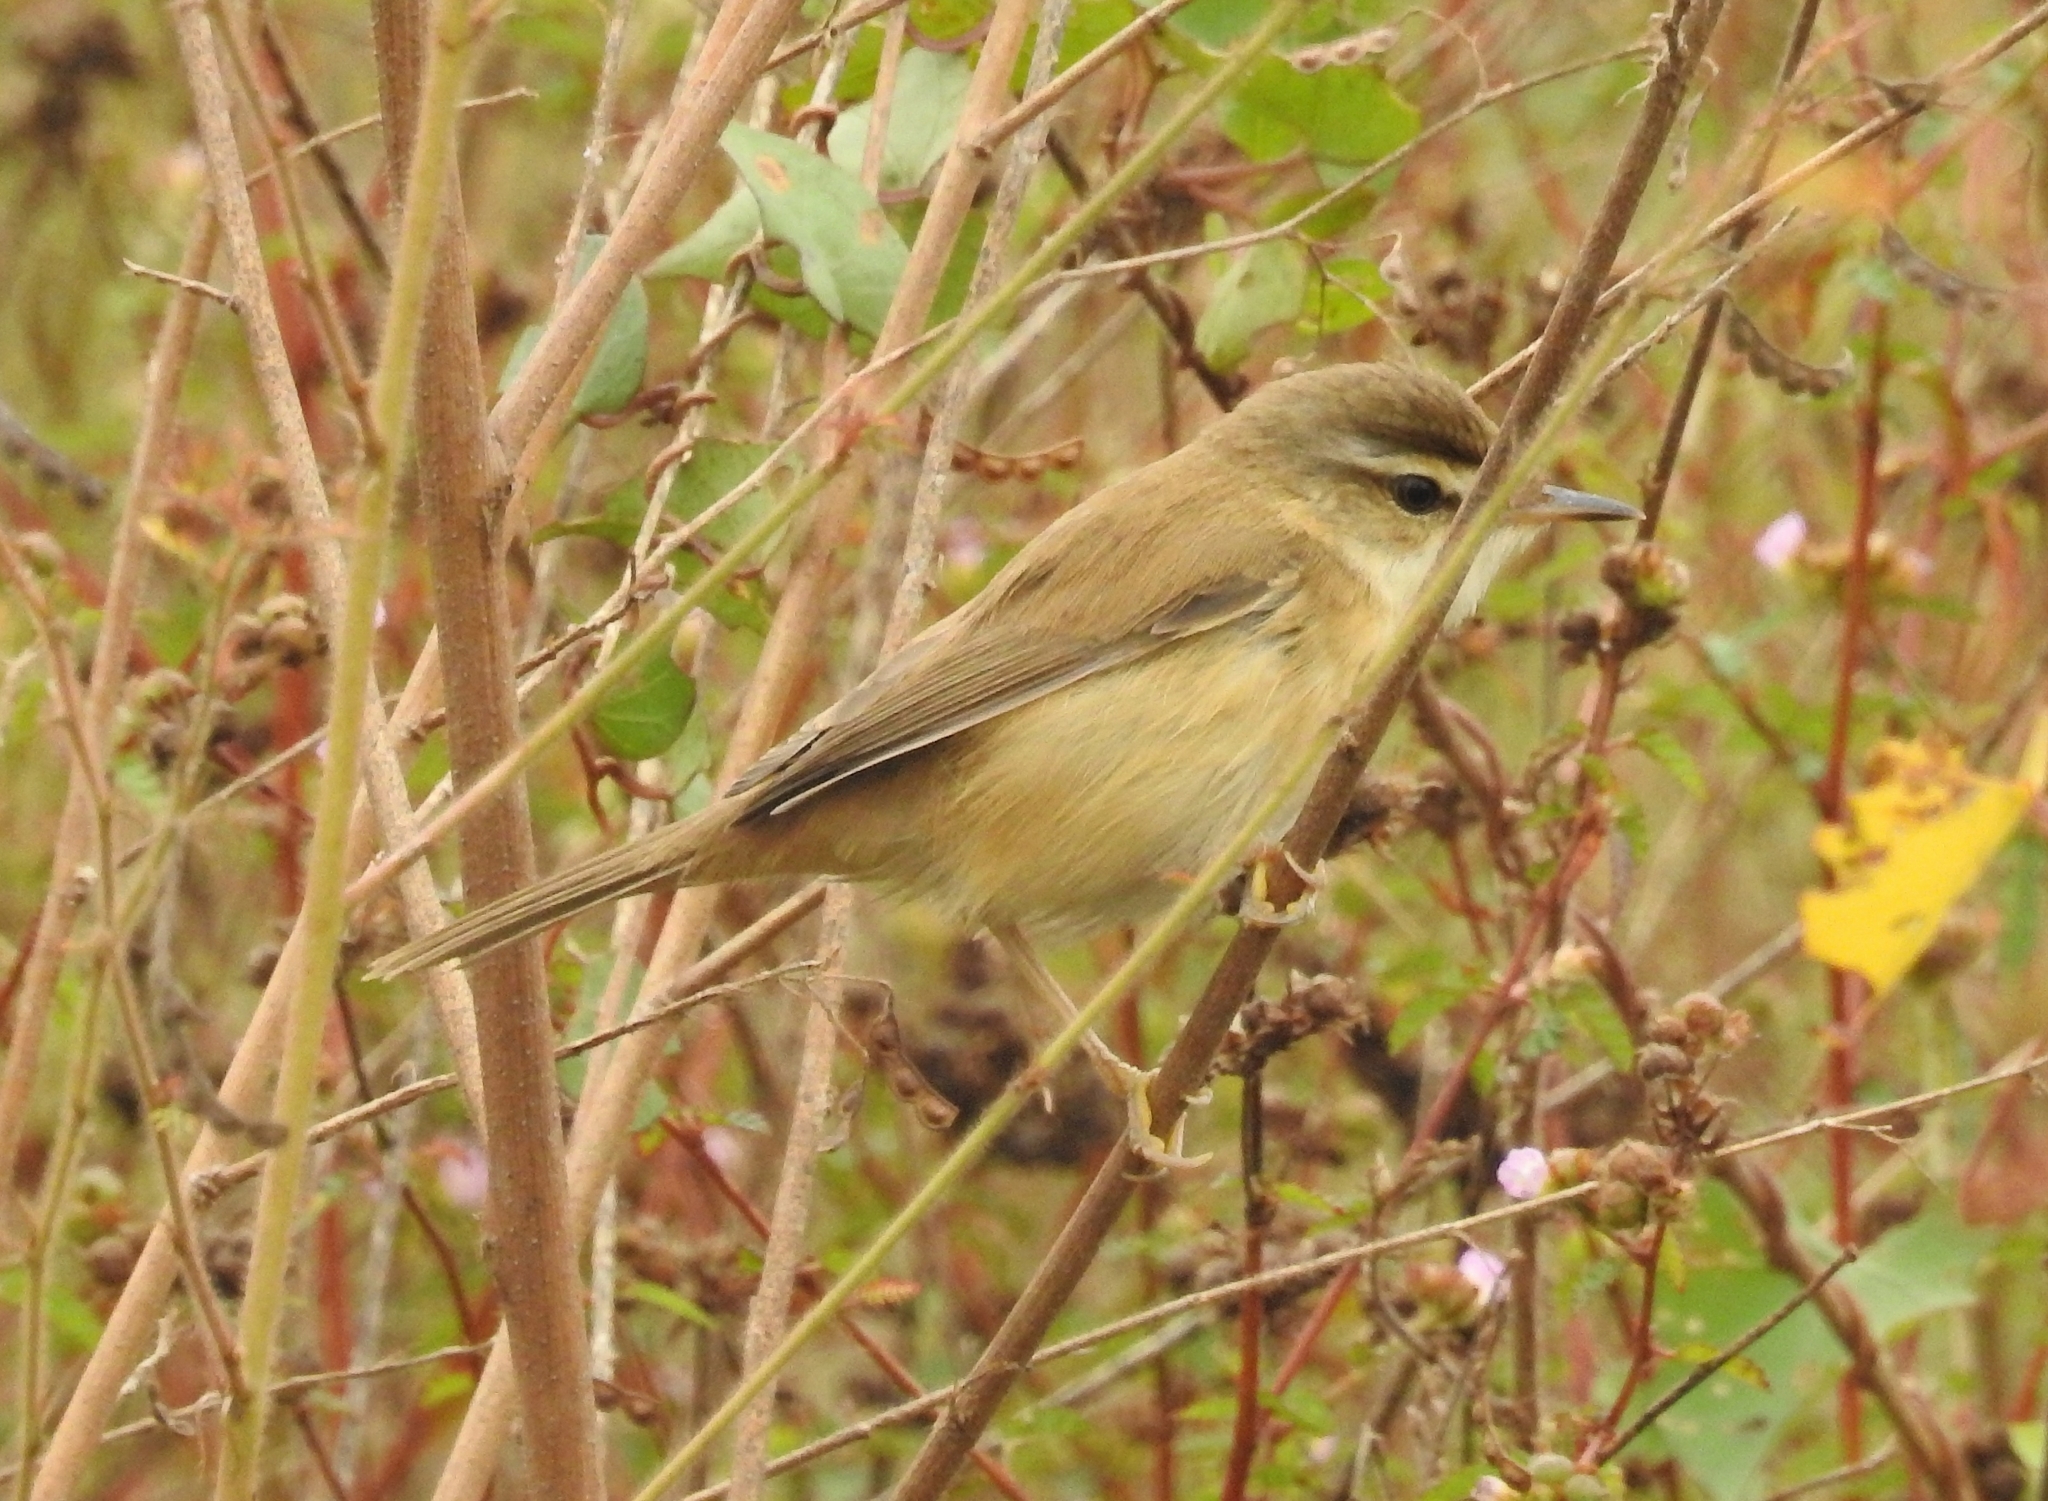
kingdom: Animalia
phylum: Chordata
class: Aves
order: Passeriformes
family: Acrocephalidae
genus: Acrocephalus
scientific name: Acrocephalus agricola
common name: Paddyfield warbler
